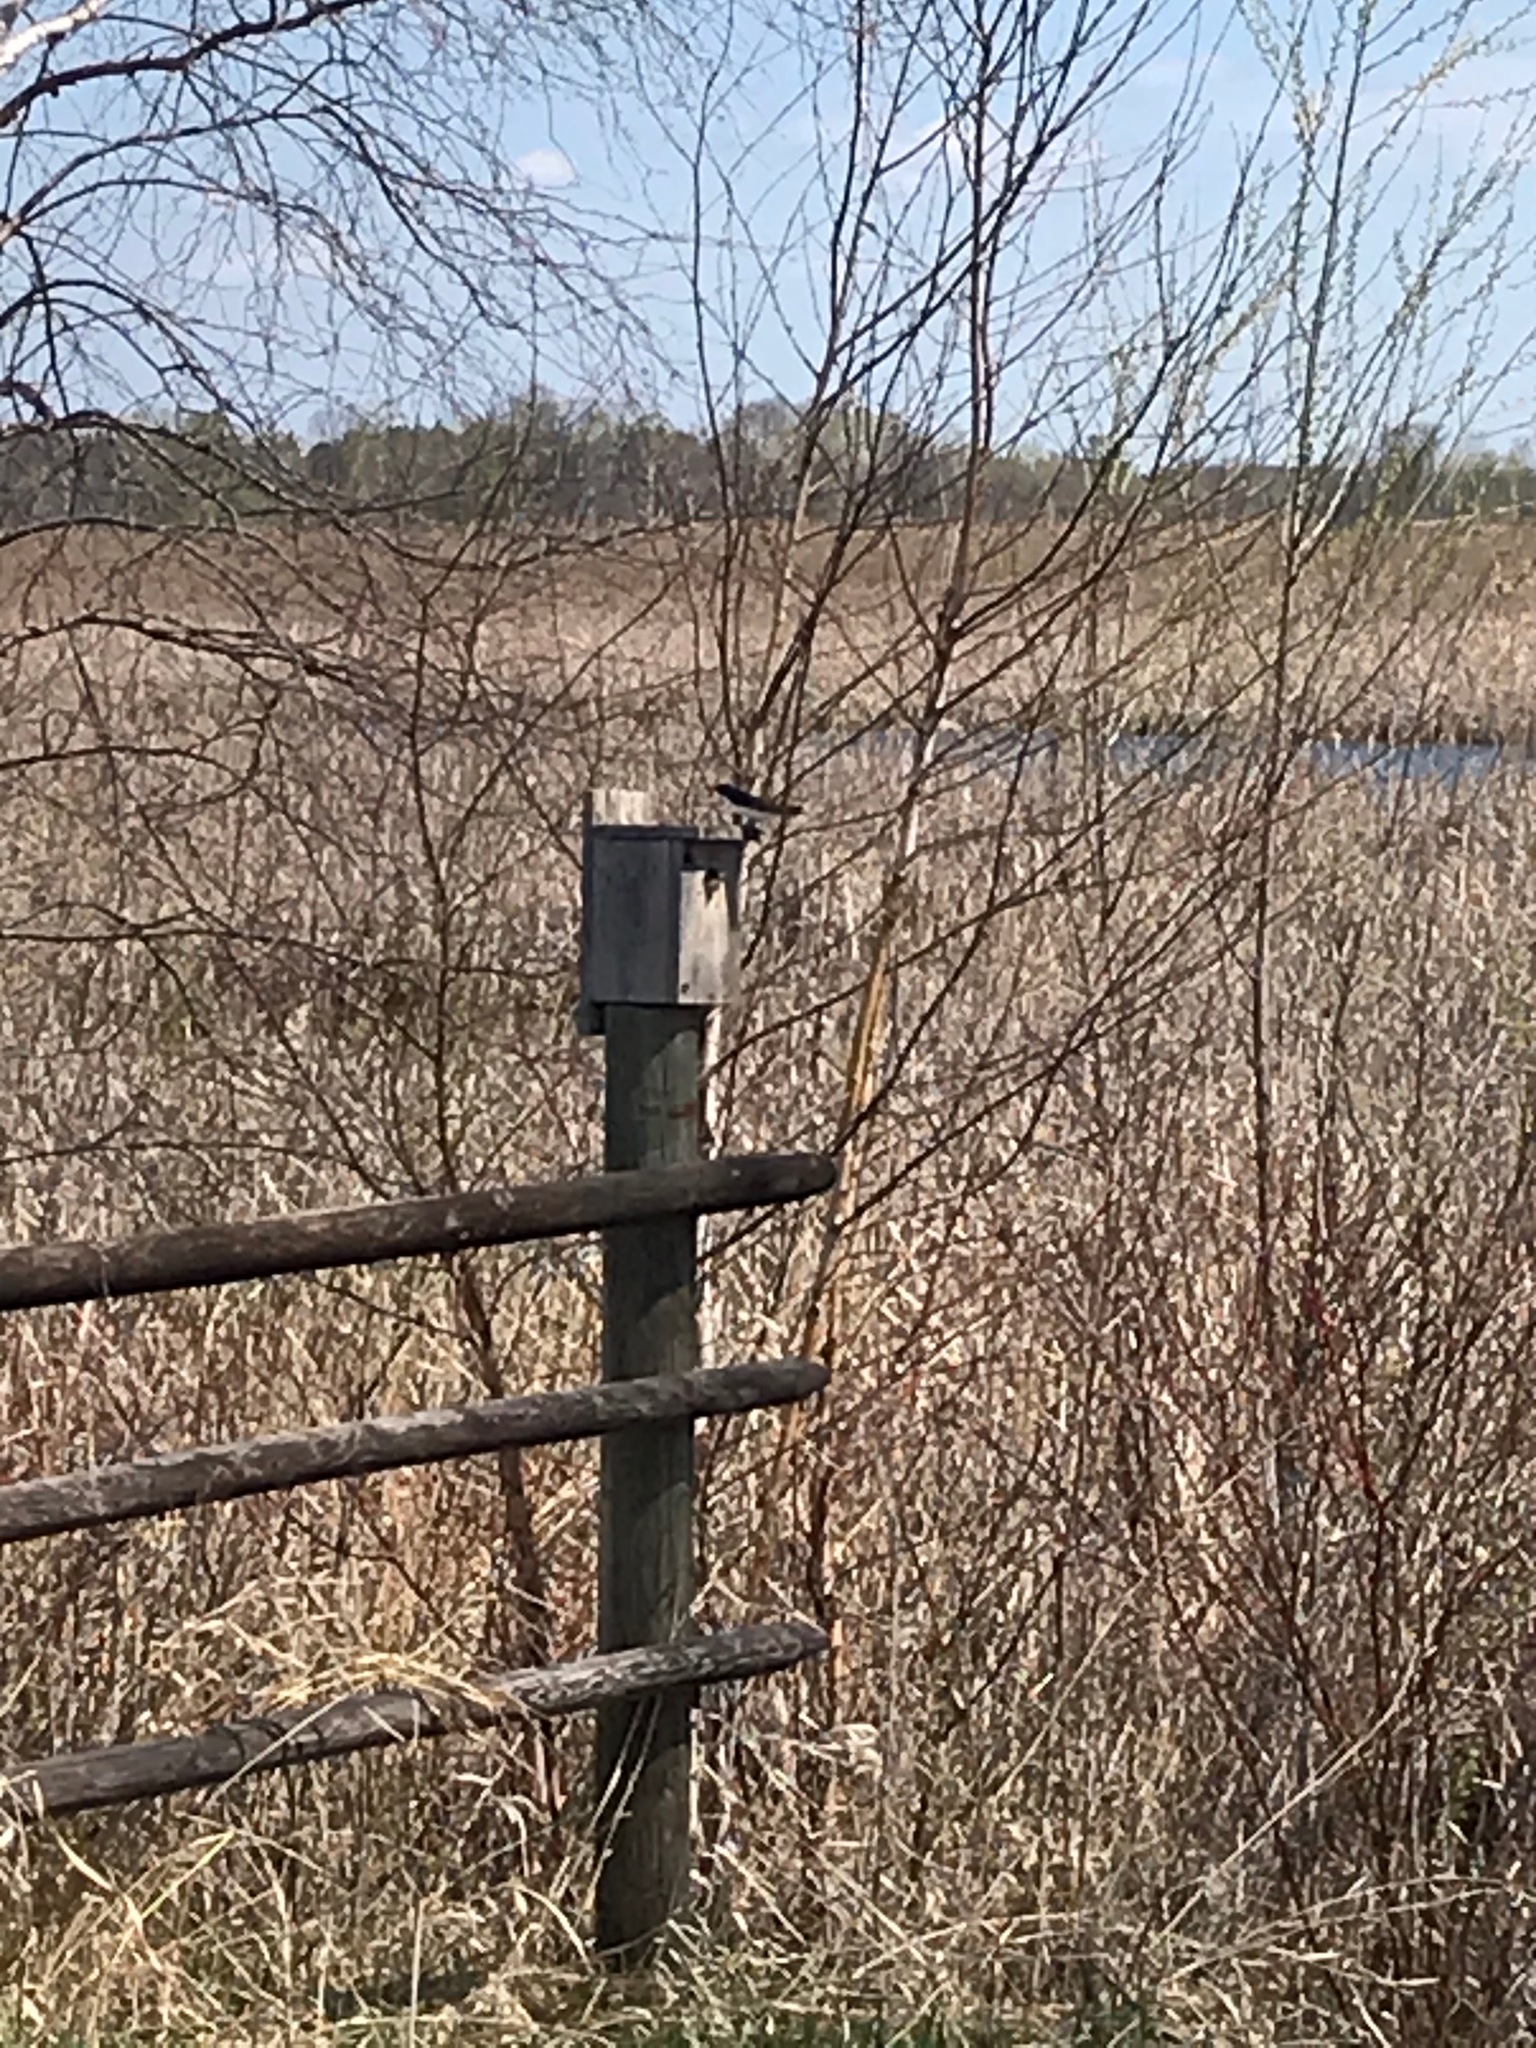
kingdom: Animalia
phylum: Chordata
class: Aves
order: Passeriformes
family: Hirundinidae
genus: Tachycineta
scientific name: Tachycineta bicolor
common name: Tree swallow
